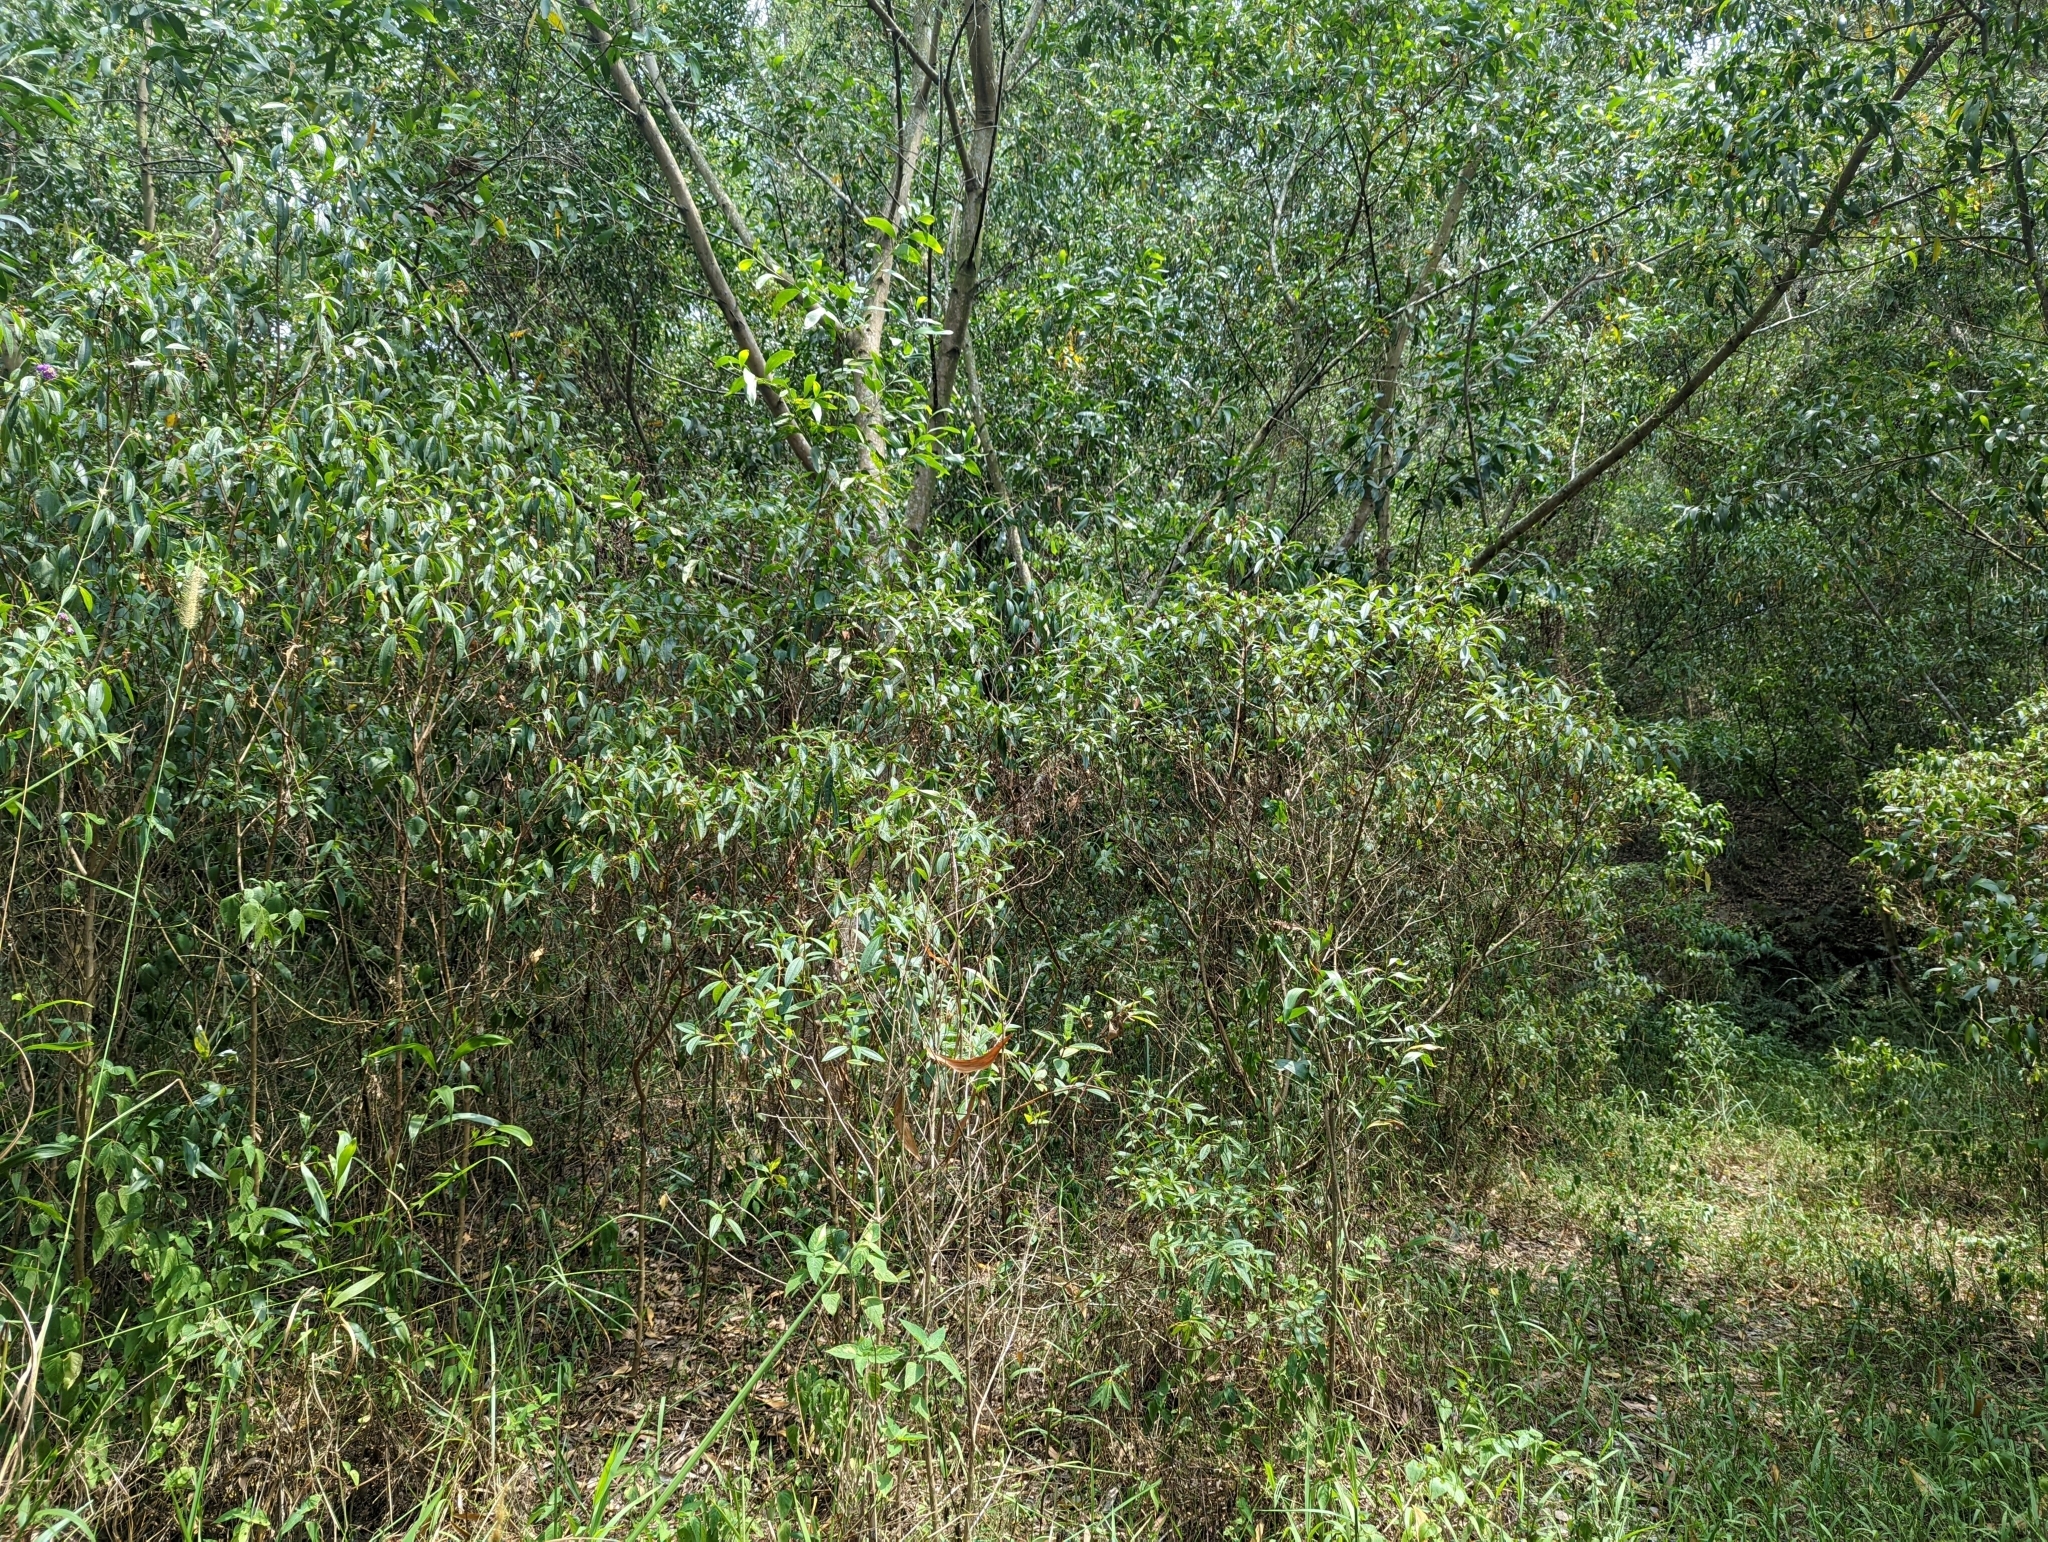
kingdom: Plantae
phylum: Tracheophyta
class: Magnoliopsida
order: Myrtales
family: Melastomataceae
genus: Melastoma
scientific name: Melastoma malabathricum
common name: Indian-rhododendron
